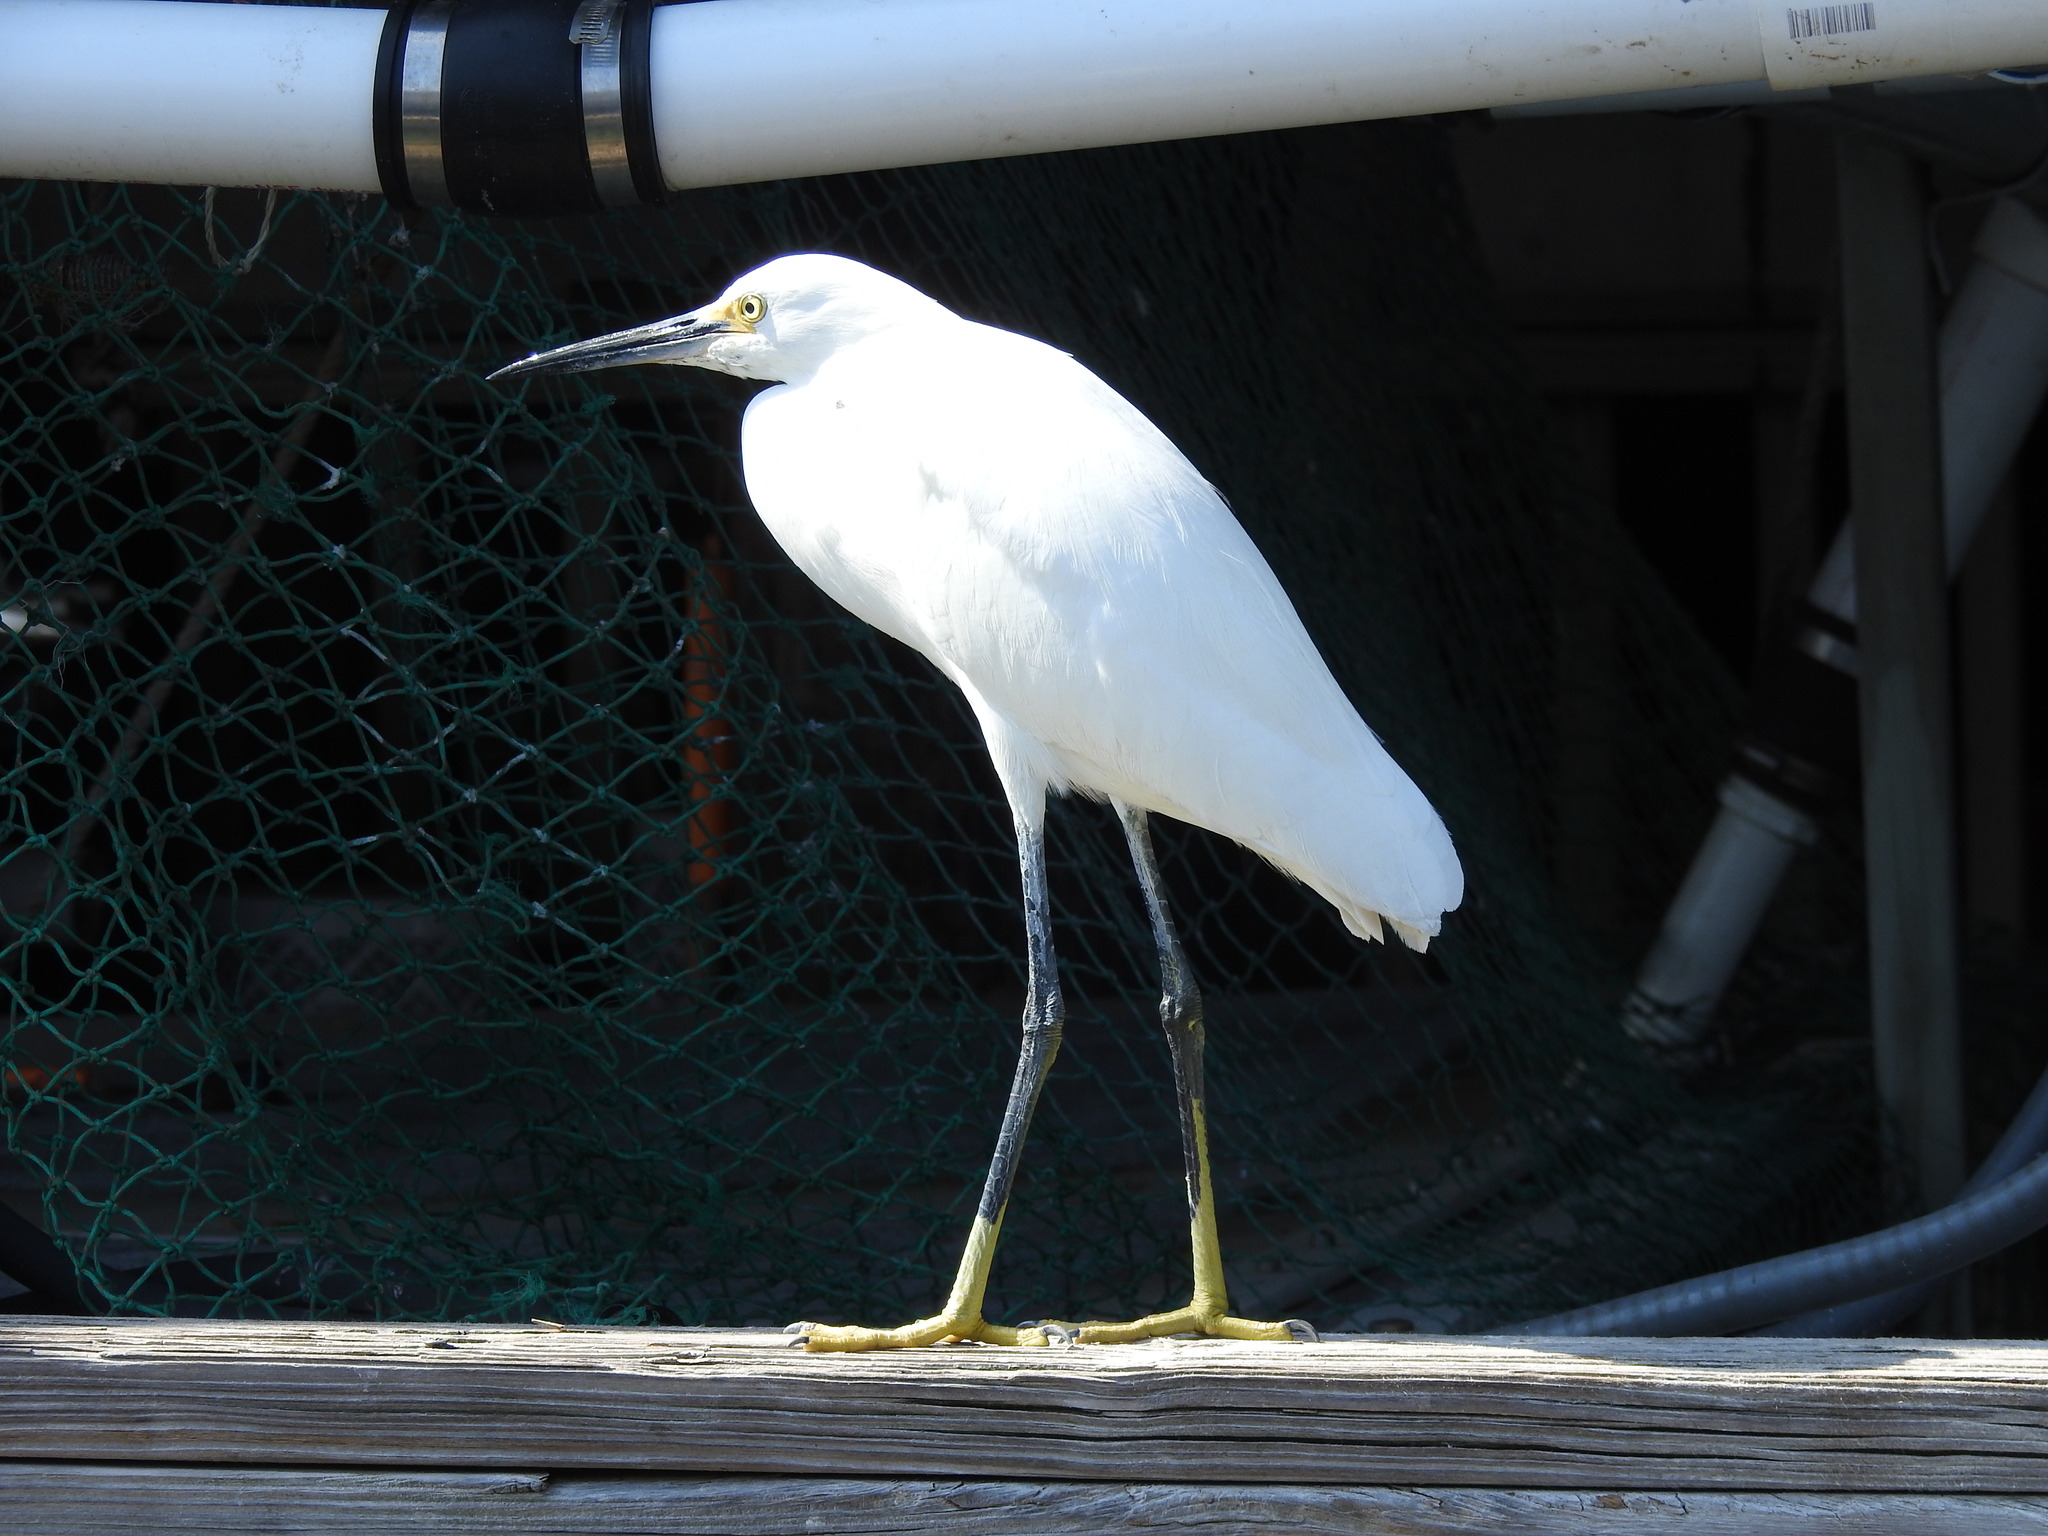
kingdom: Animalia
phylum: Chordata
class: Aves
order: Pelecaniformes
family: Ardeidae
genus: Egretta
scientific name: Egretta thula
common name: Snowy egret
